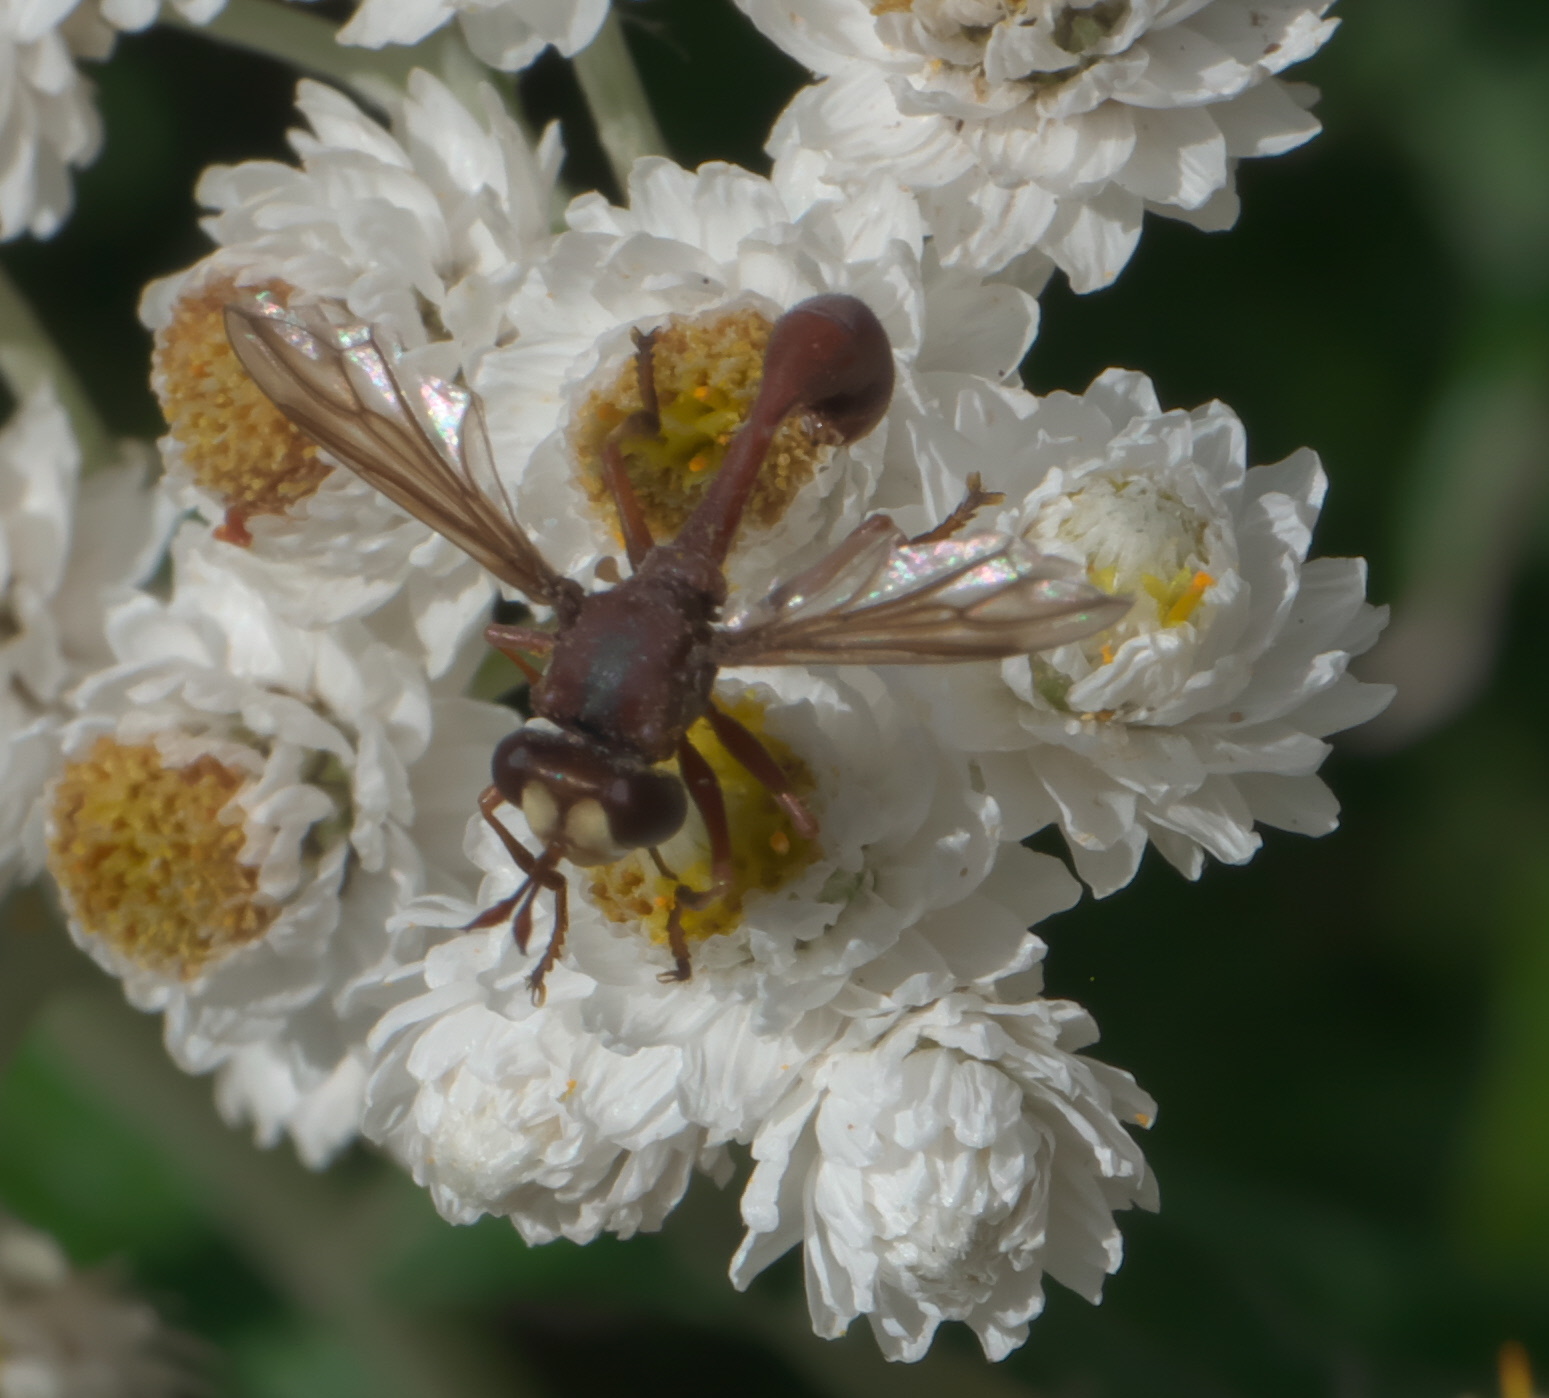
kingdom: Animalia
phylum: Arthropoda
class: Insecta
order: Diptera
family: Conopidae
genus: Physocephala
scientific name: Physocephala burgessi
